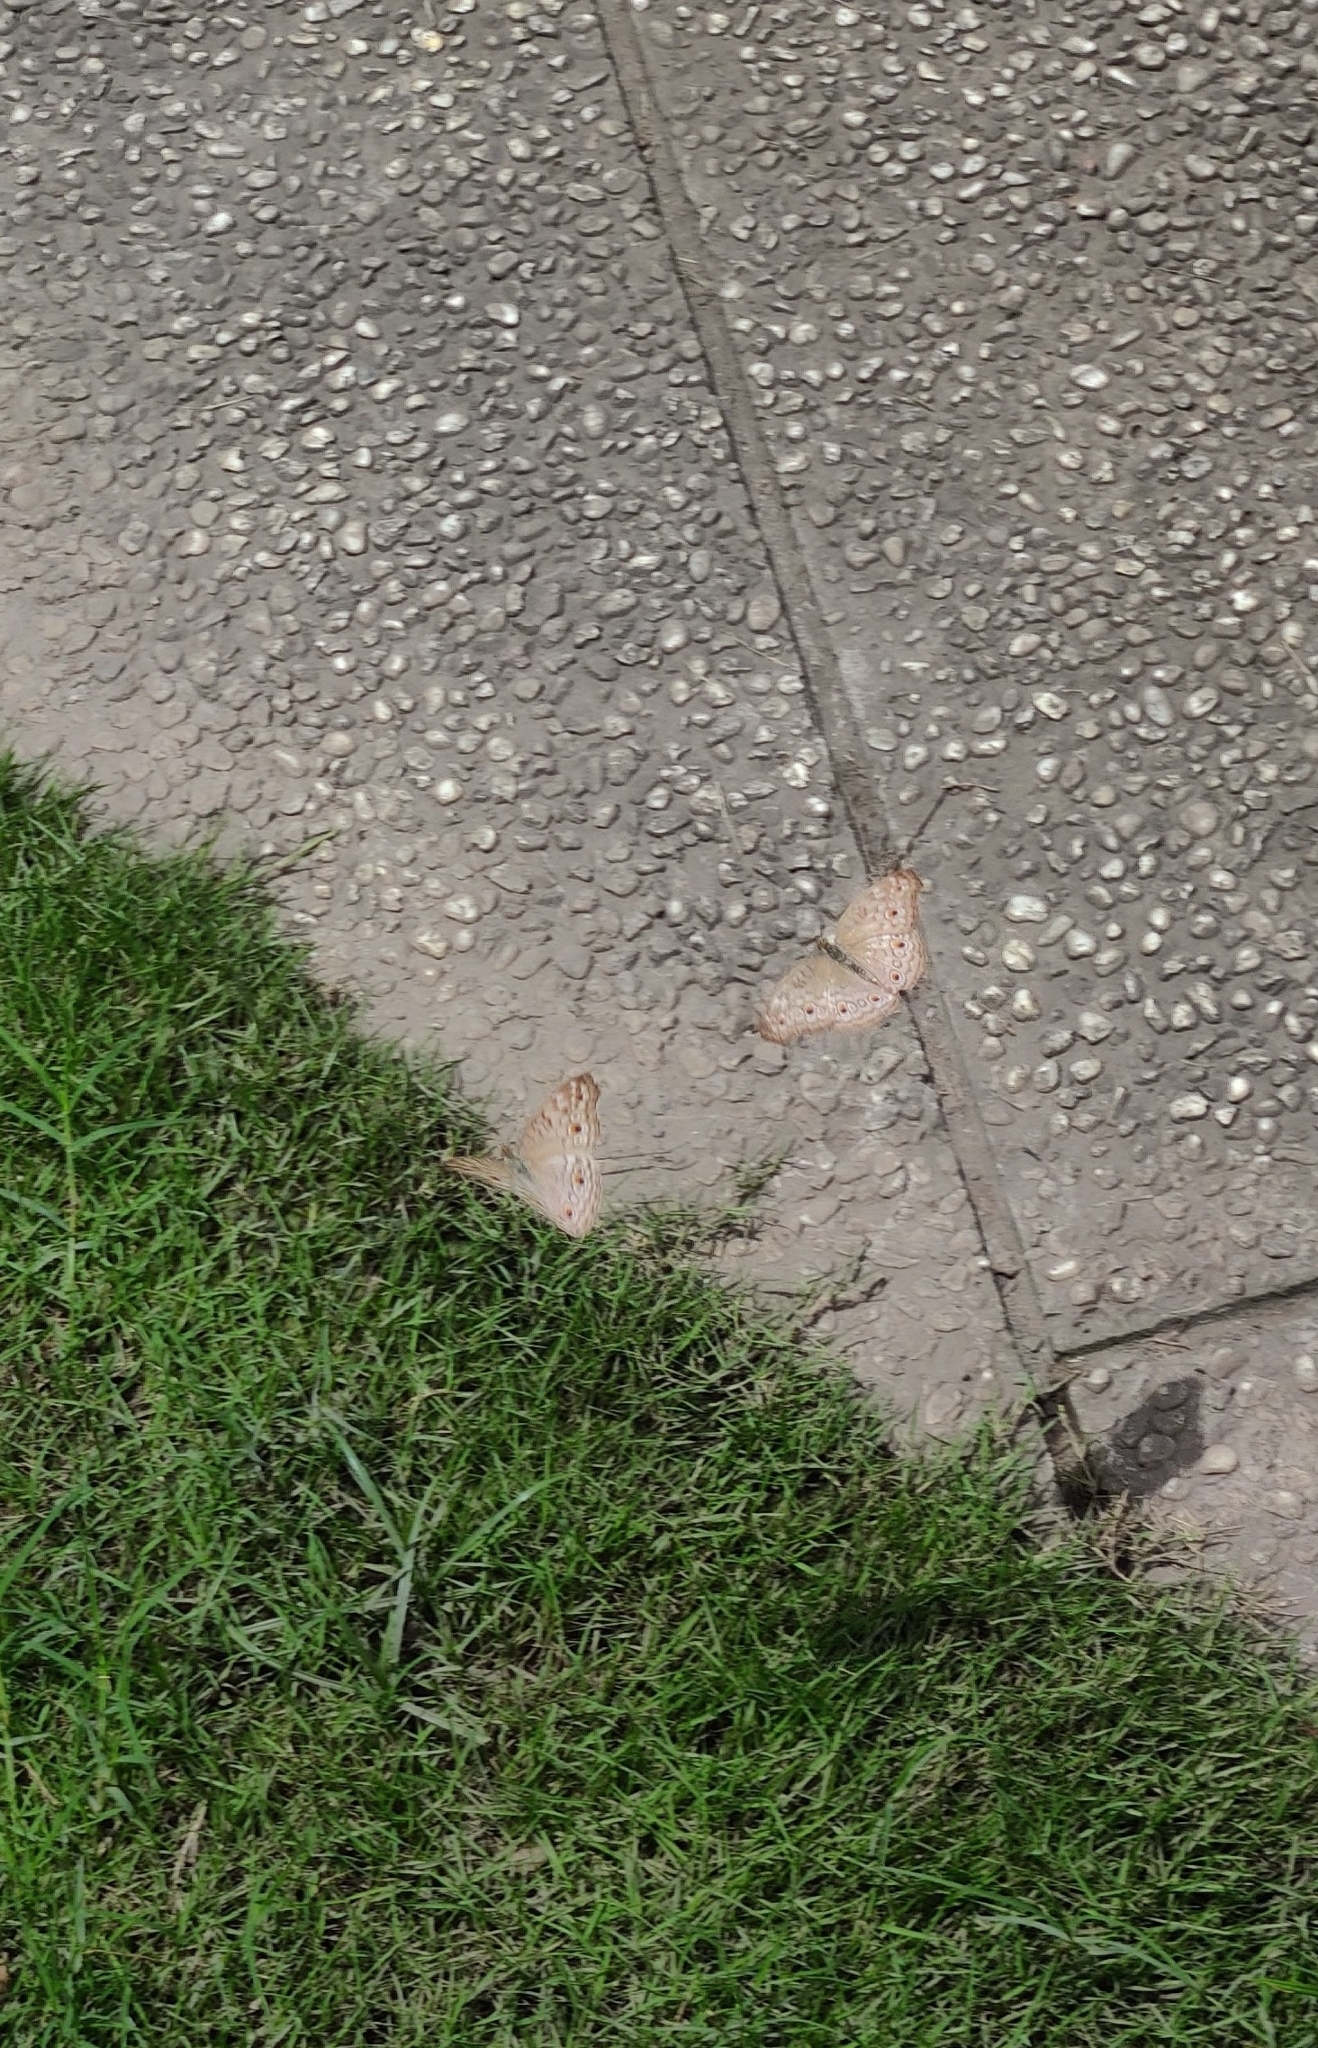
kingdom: Animalia
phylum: Arthropoda
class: Insecta
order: Lepidoptera
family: Nymphalidae
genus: Junonia
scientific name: Junonia atlites
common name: Grey pansy
